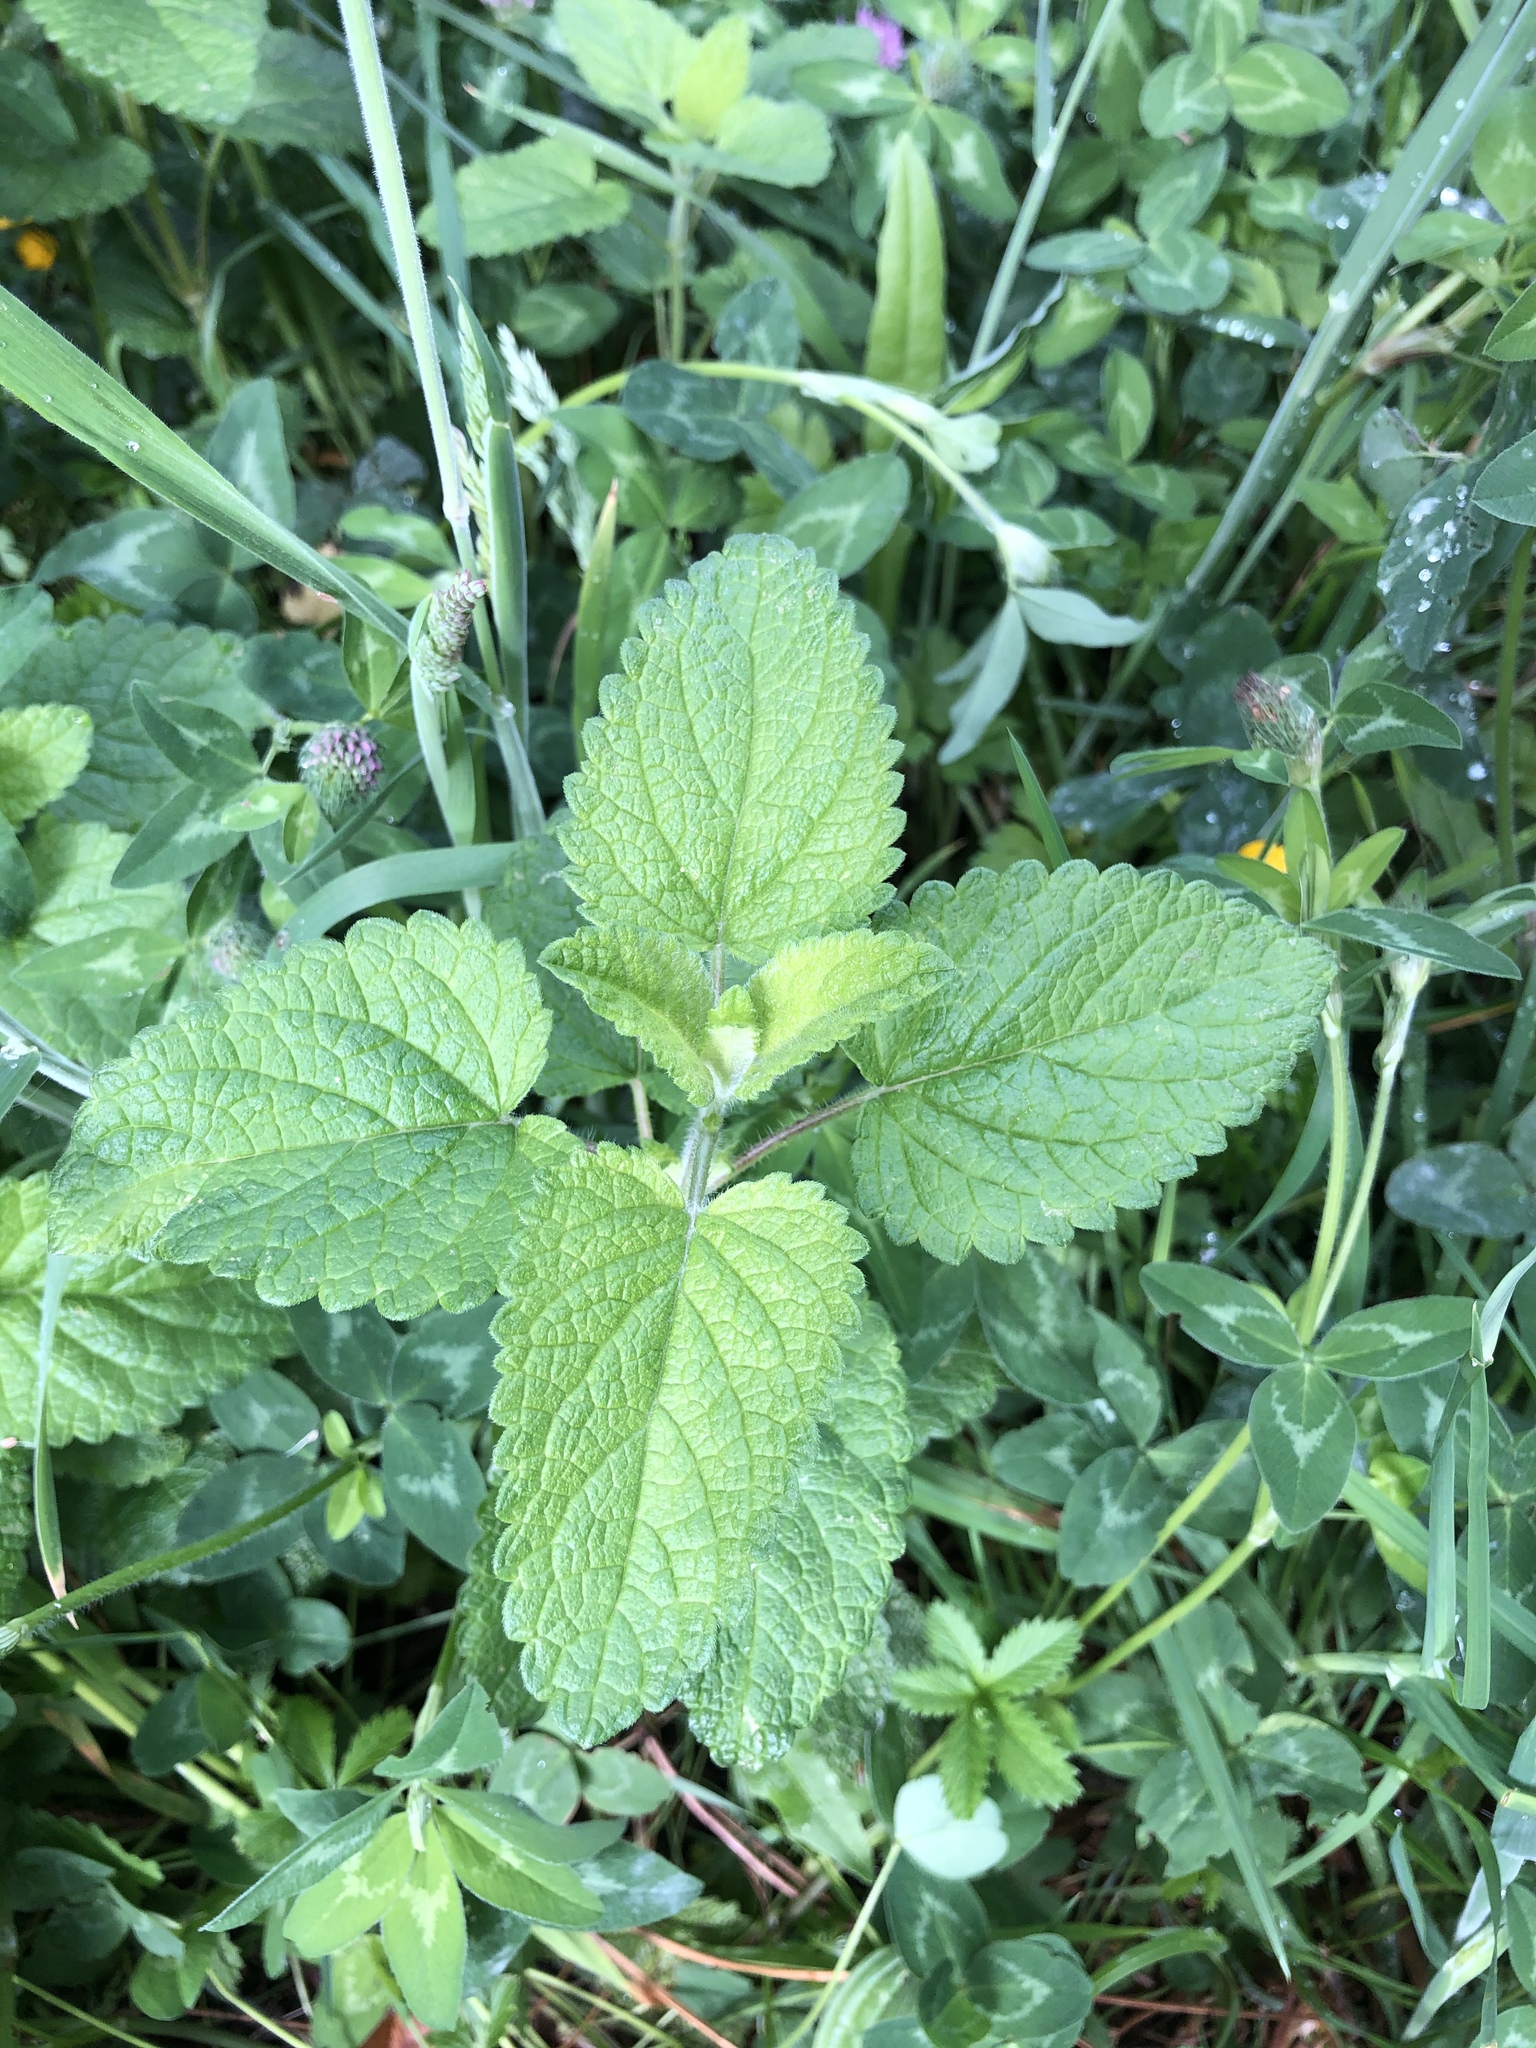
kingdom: Plantae
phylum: Tracheophyta
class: Magnoliopsida
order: Lamiales
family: Lamiaceae
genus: Melissa
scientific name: Melissa officinalis
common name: Balm
